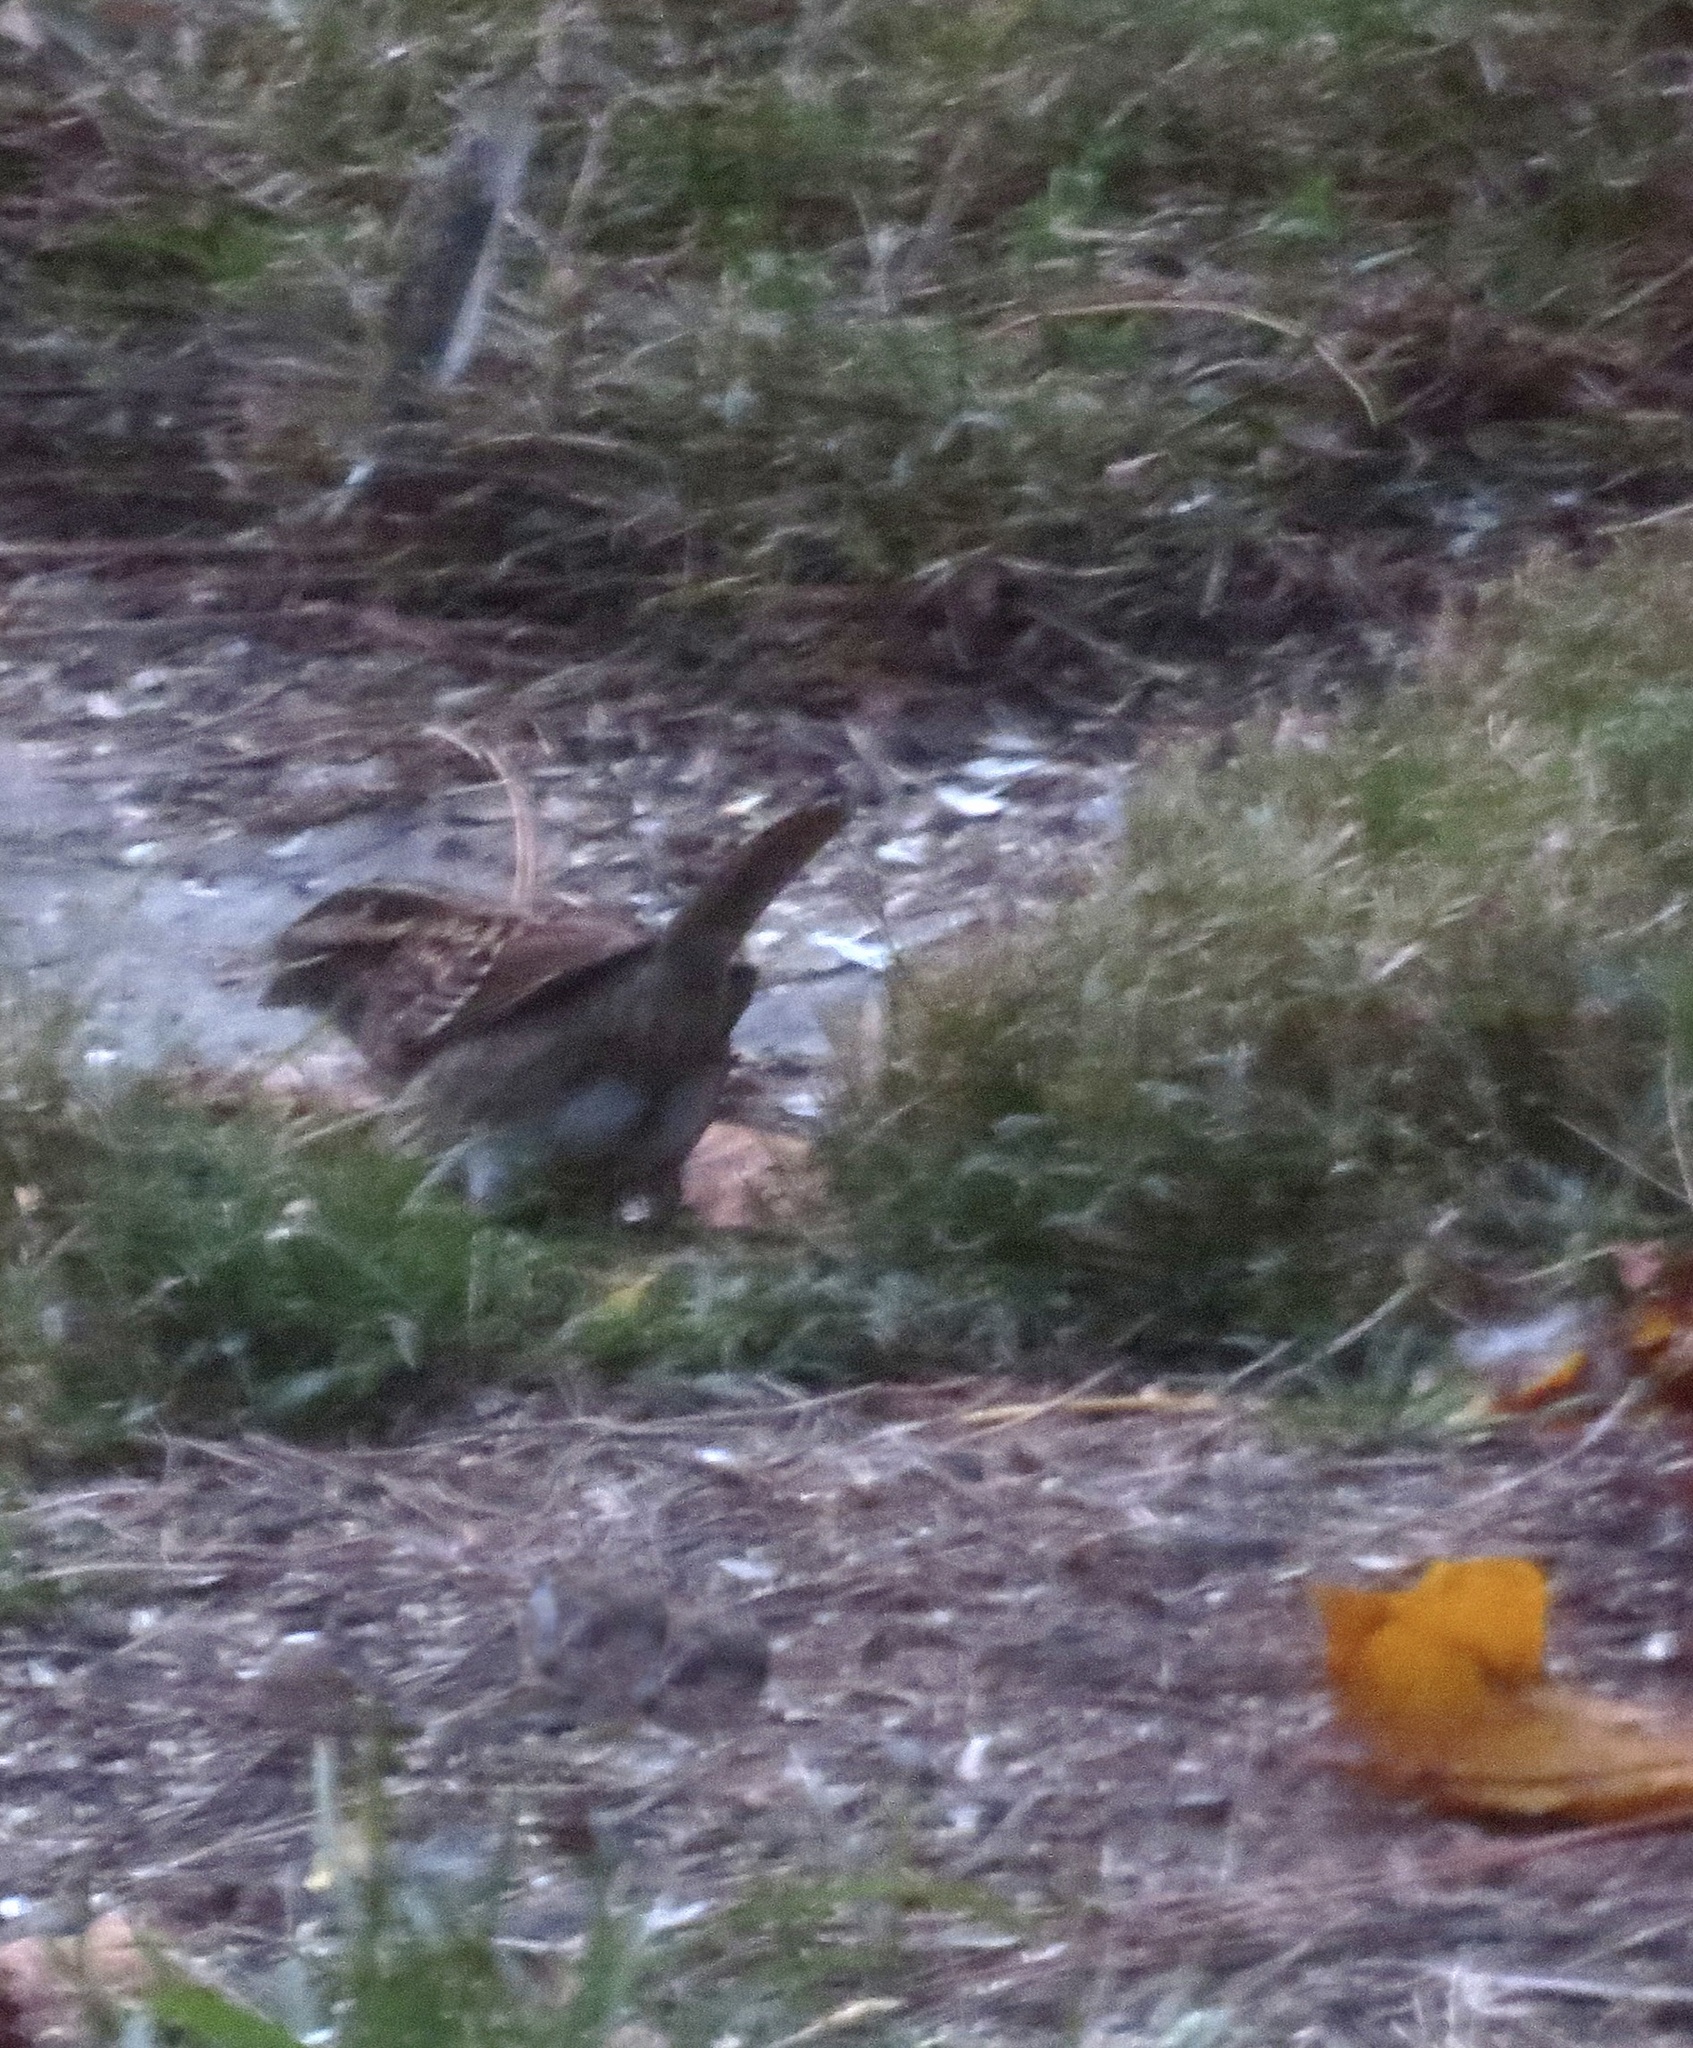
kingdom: Animalia
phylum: Chordata
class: Aves
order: Passeriformes
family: Passerellidae
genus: Zonotrichia
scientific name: Zonotrichia albicollis
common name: White-throated sparrow
